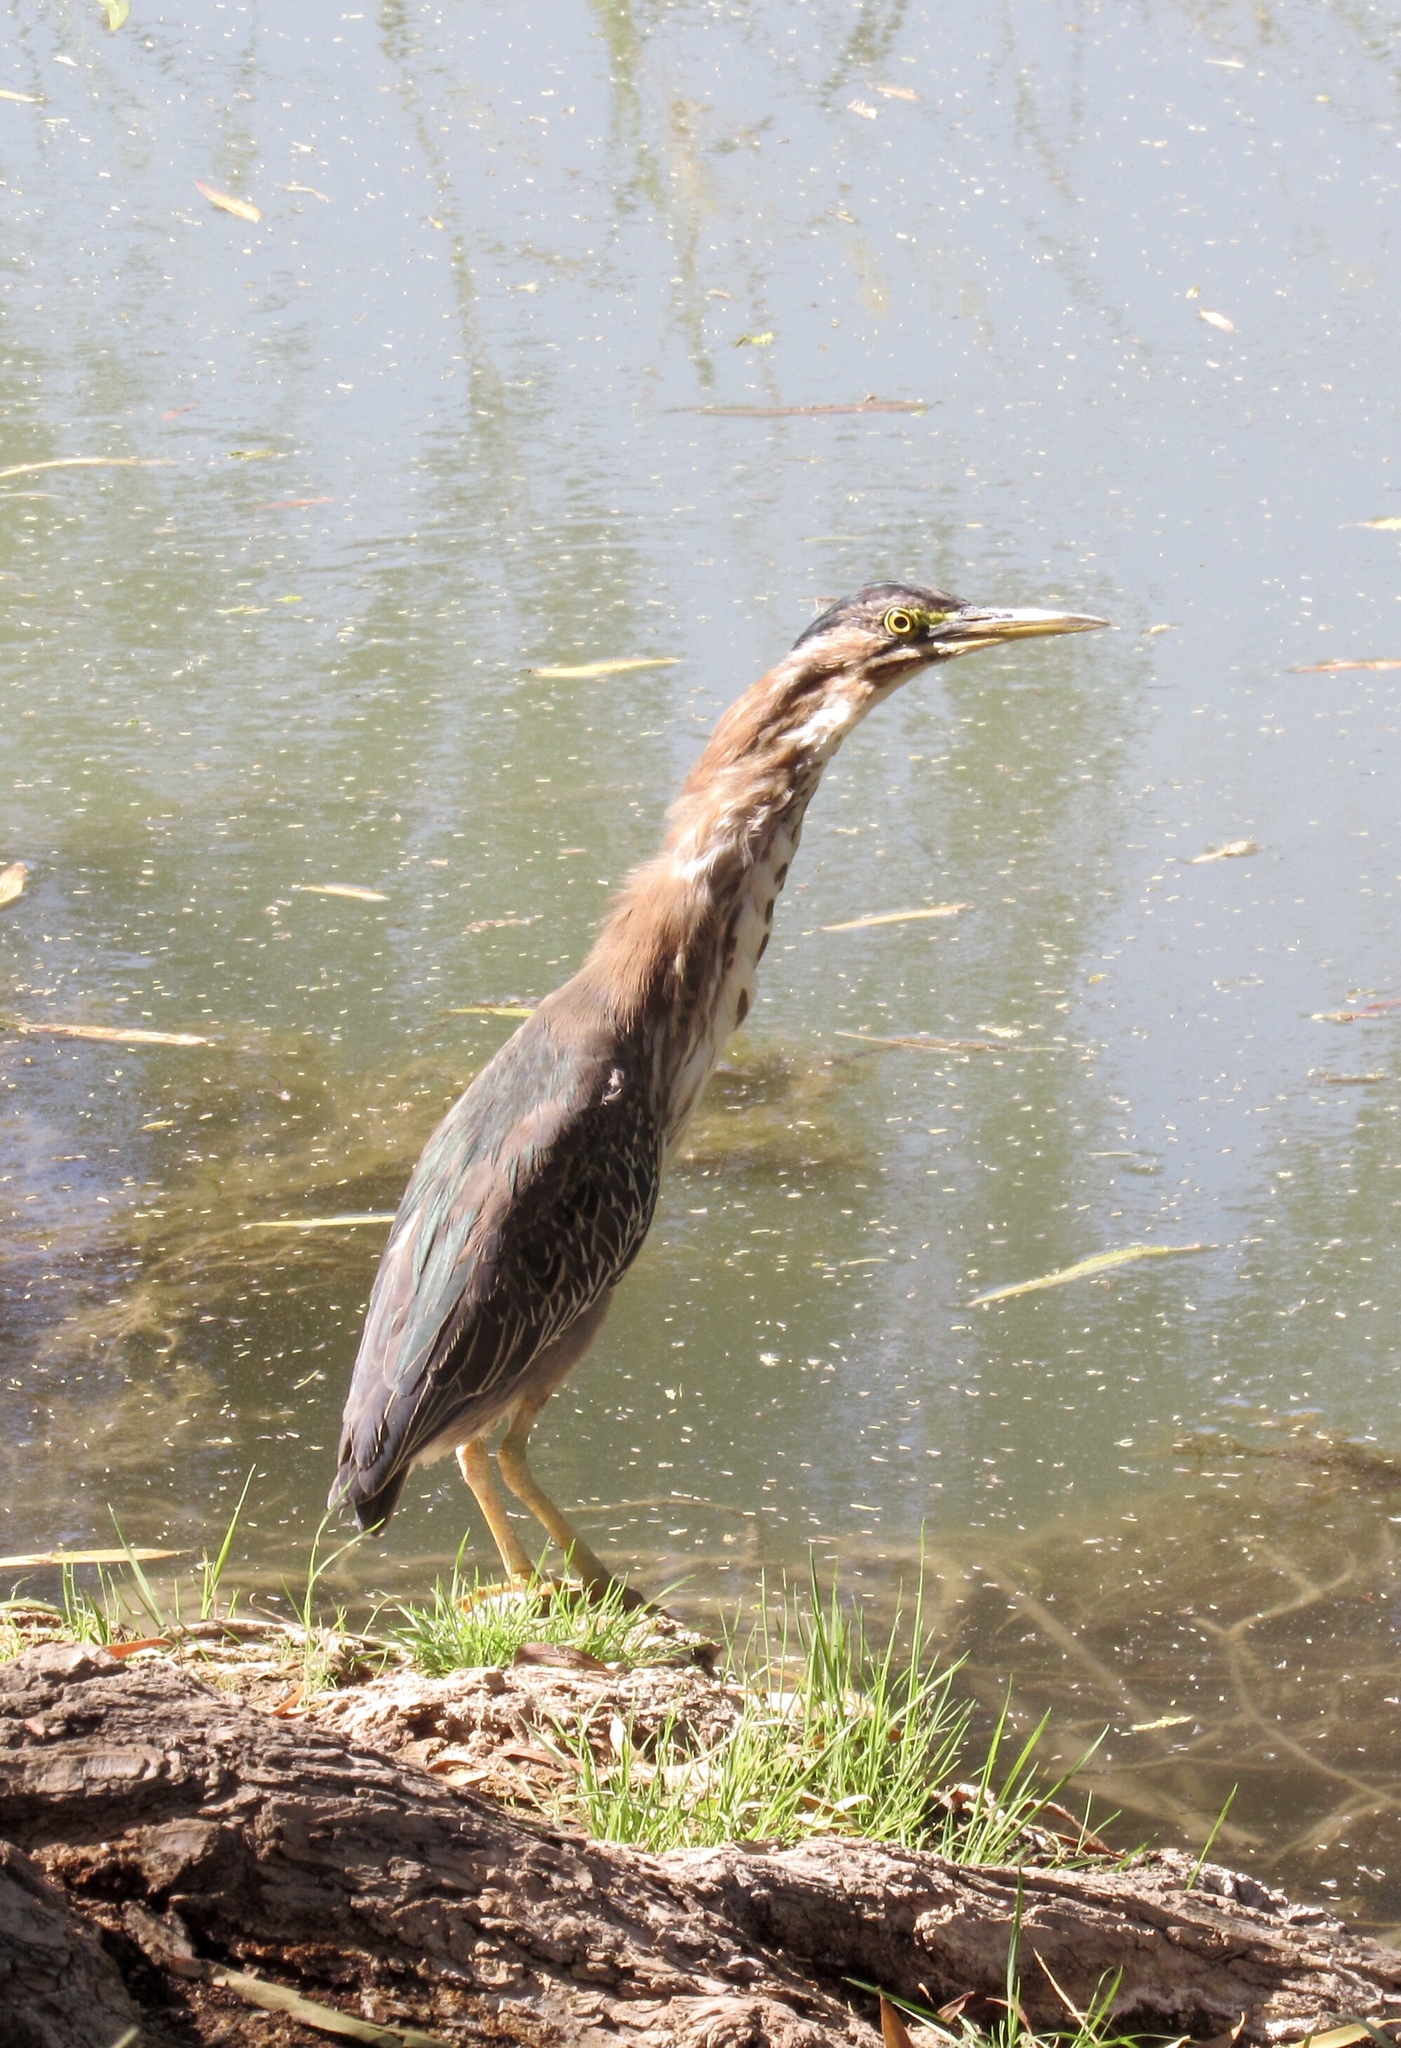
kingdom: Animalia
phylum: Chordata
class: Aves
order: Pelecaniformes
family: Ardeidae
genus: Butorides
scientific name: Butorides virescens
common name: Green heron
